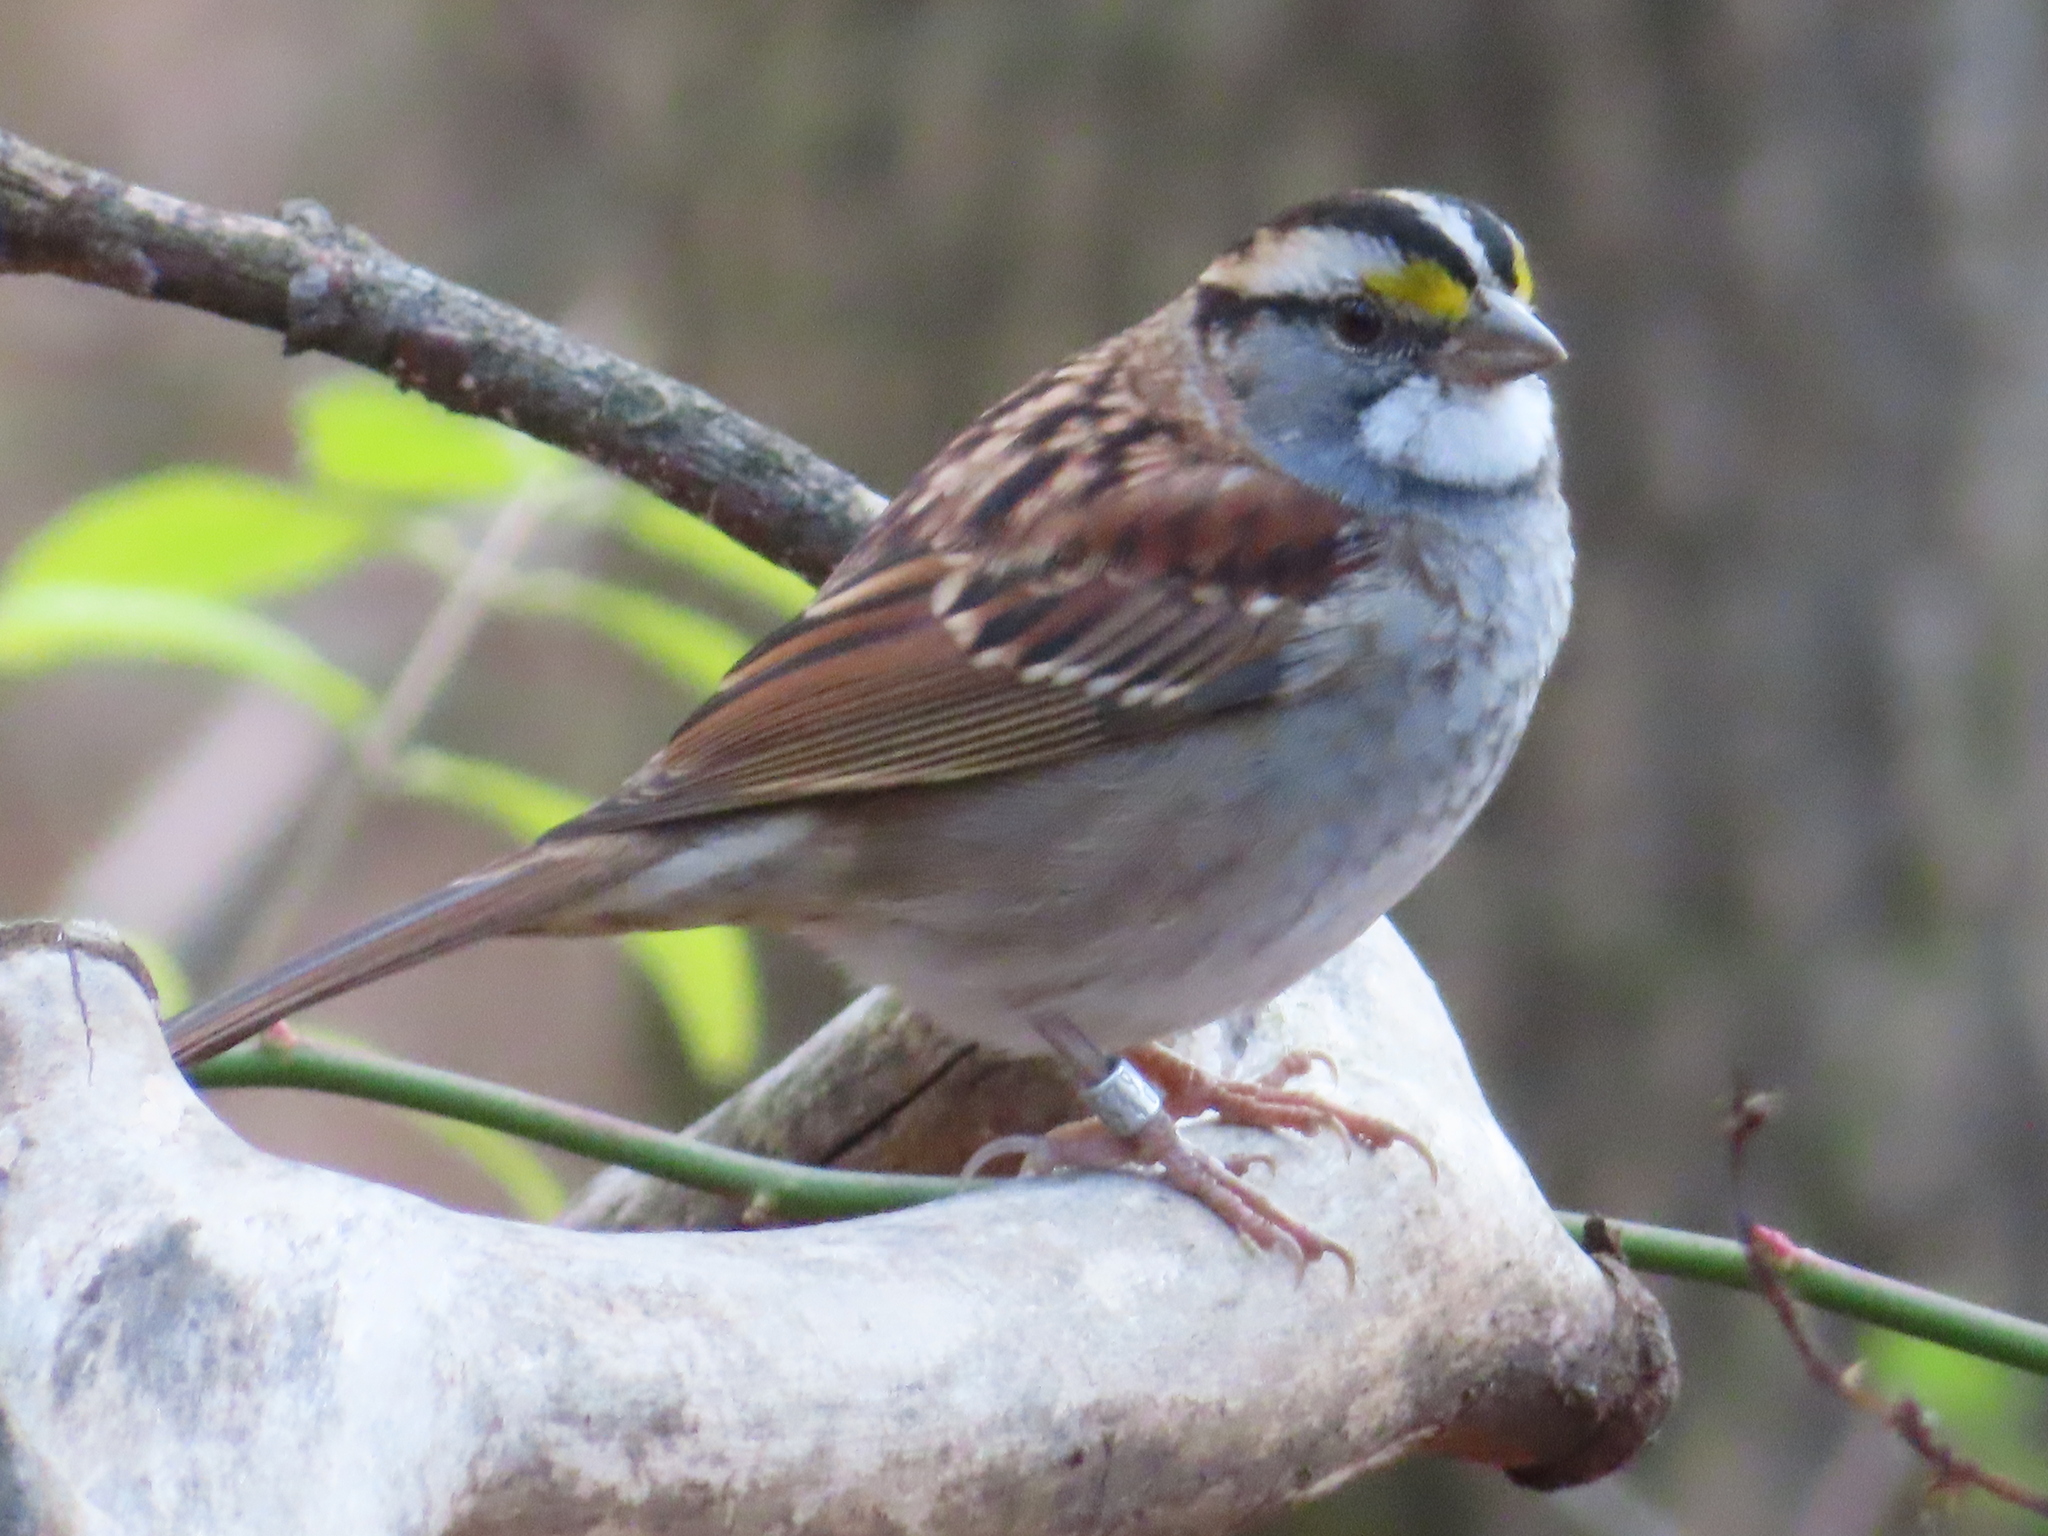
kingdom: Animalia
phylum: Chordata
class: Aves
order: Passeriformes
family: Passerellidae
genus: Zonotrichia
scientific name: Zonotrichia albicollis
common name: White-throated sparrow
